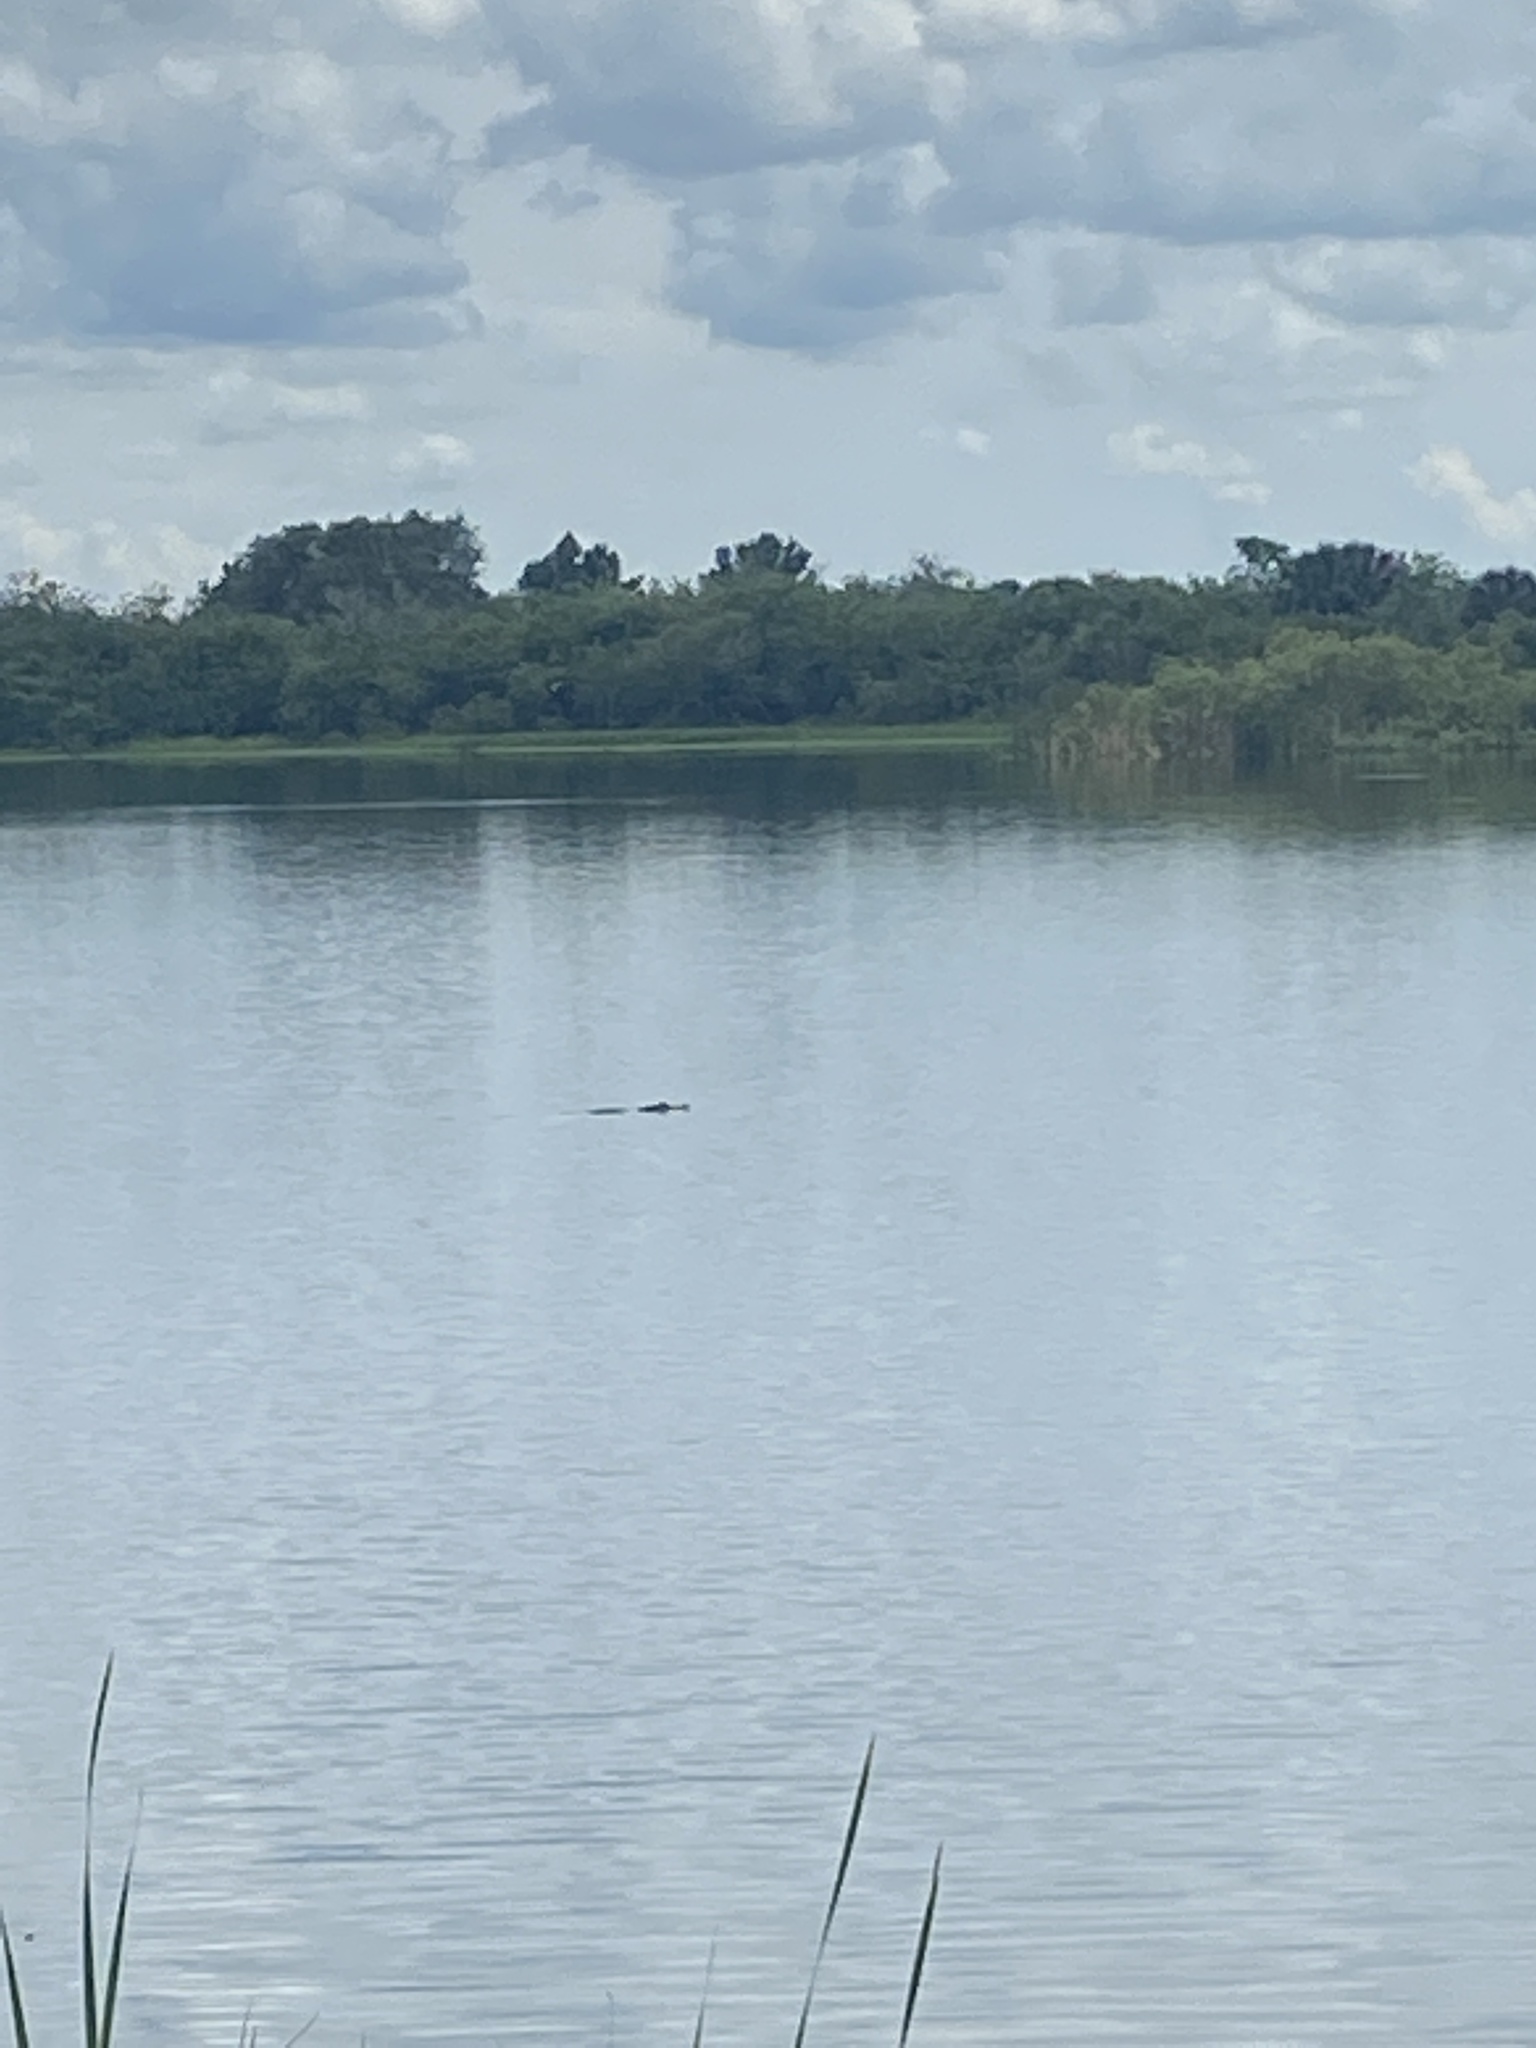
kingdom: Animalia
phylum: Chordata
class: Crocodylia
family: Alligatoridae
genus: Alligator
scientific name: Alligator mississippiensis
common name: American alligator
